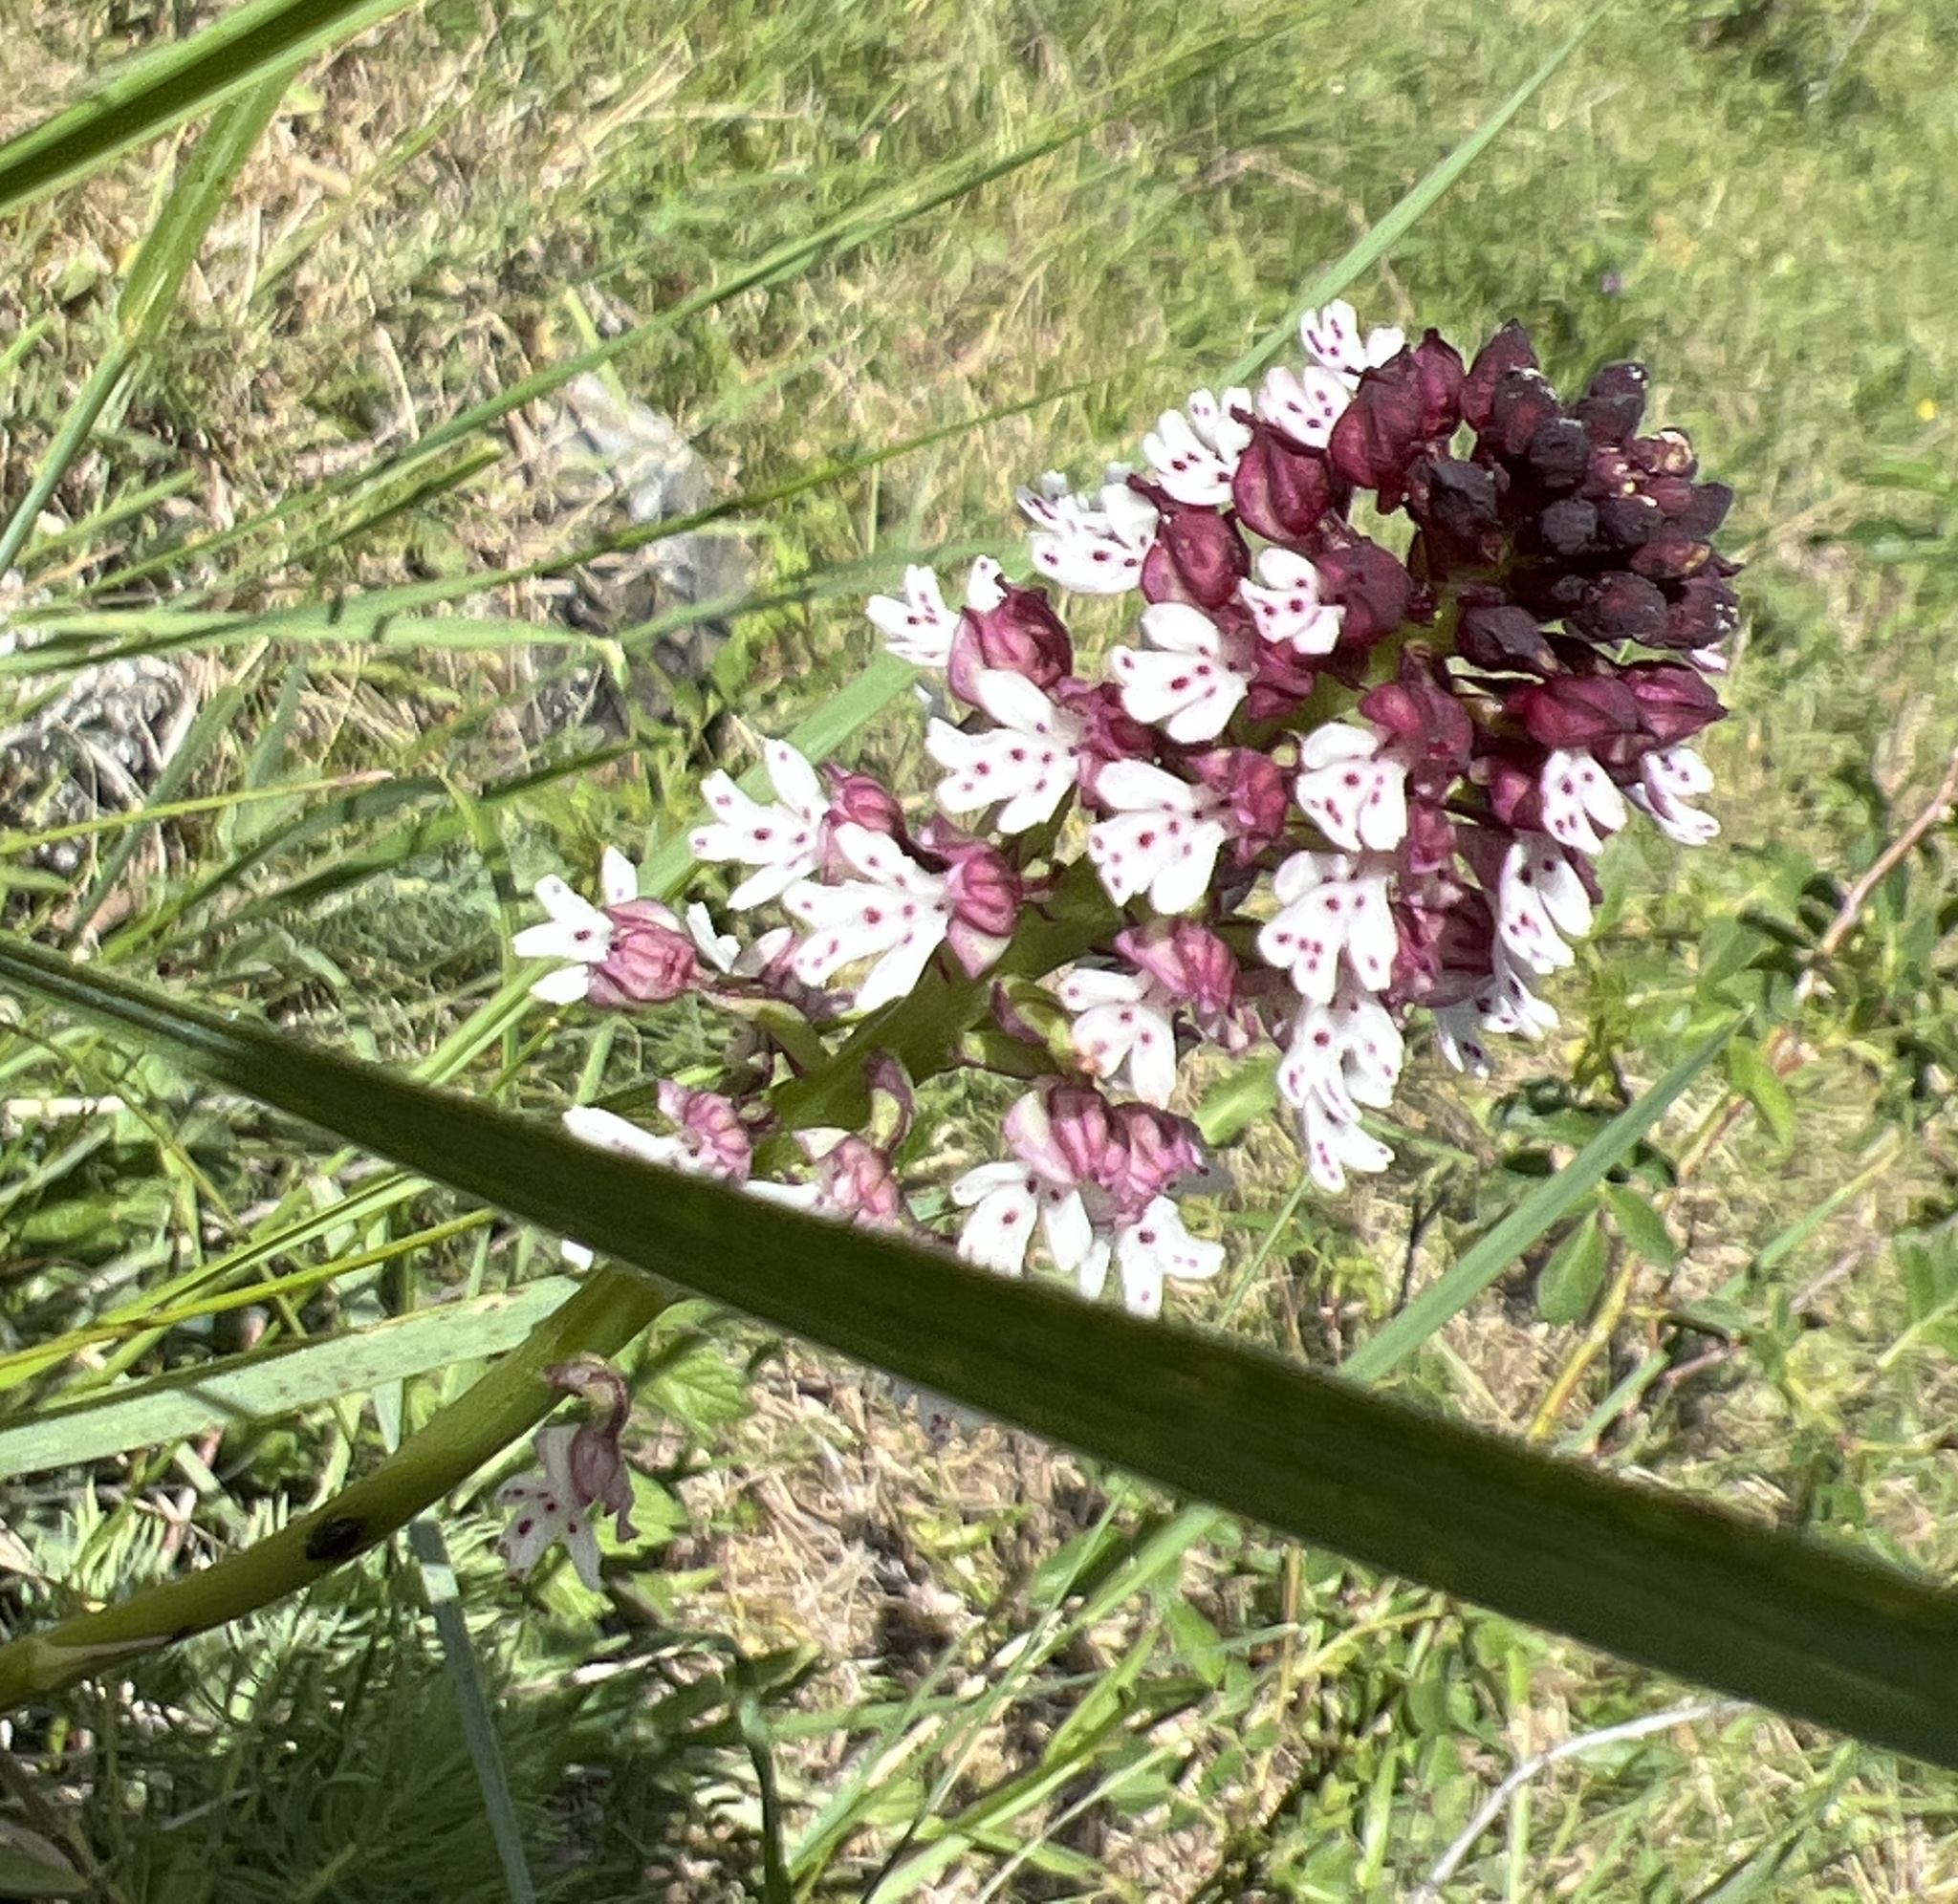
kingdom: Plantae
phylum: Tracheophyta
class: Liliopsida
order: Asparagales
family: Orchidaceae
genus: Neotinea
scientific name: Neotinea ustulata
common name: Burnt orchid
